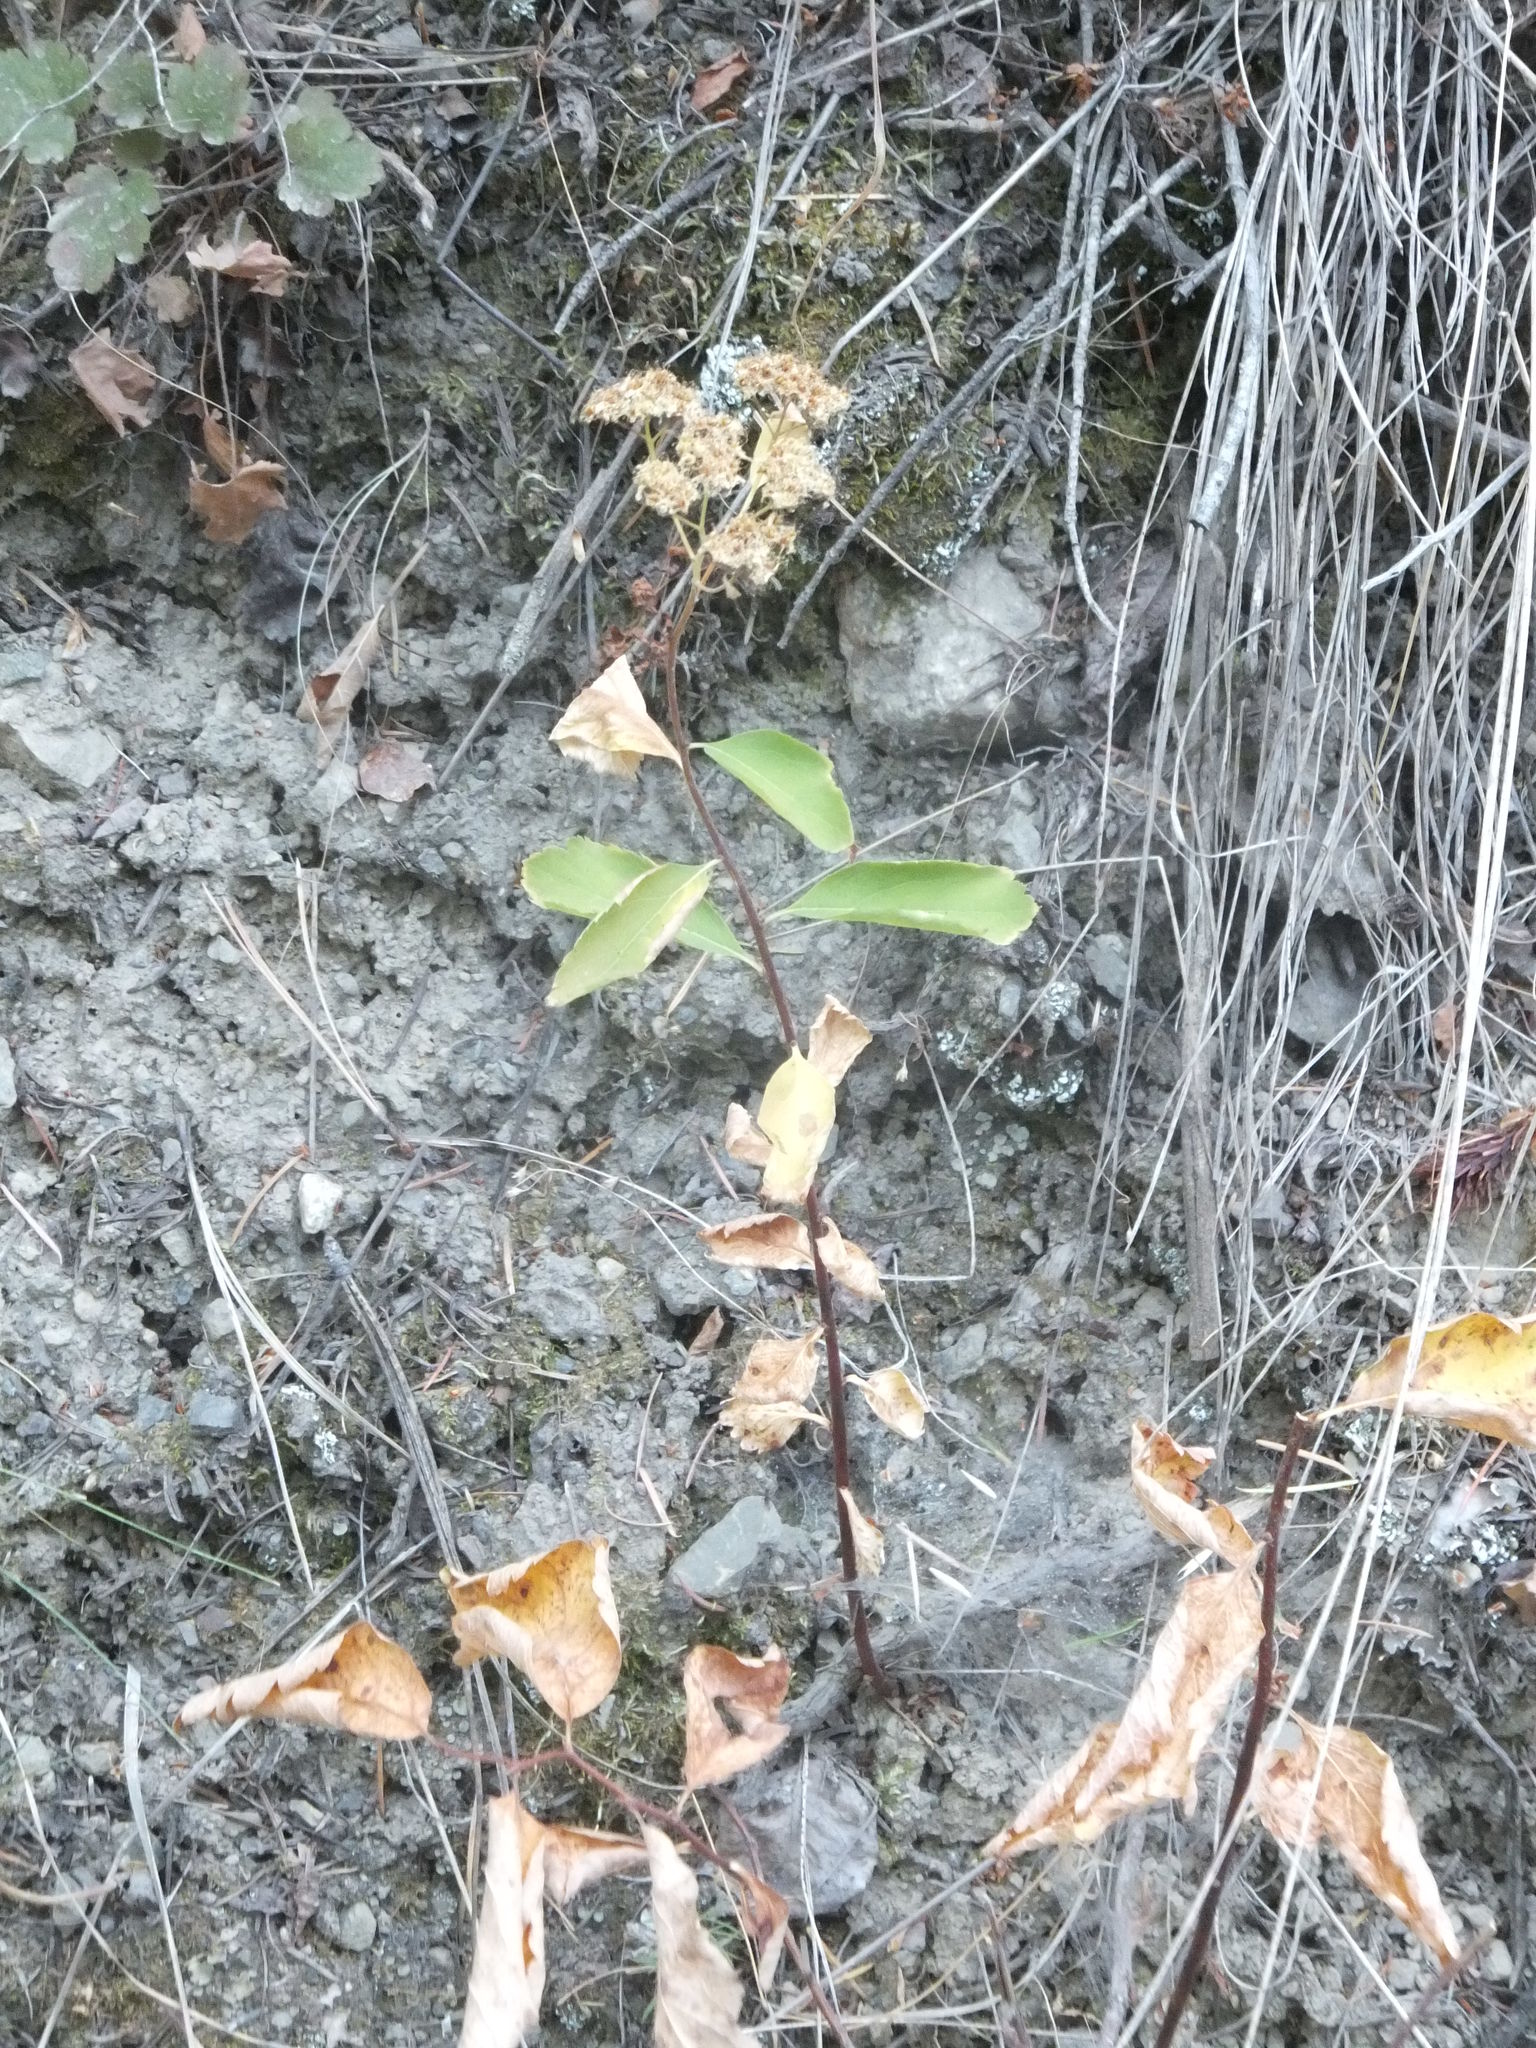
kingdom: Plantae
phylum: Tracheophyta
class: Magnoliopsida
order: Rosales
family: Rosaceae
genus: Spiraea
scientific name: Spiraea lucida
